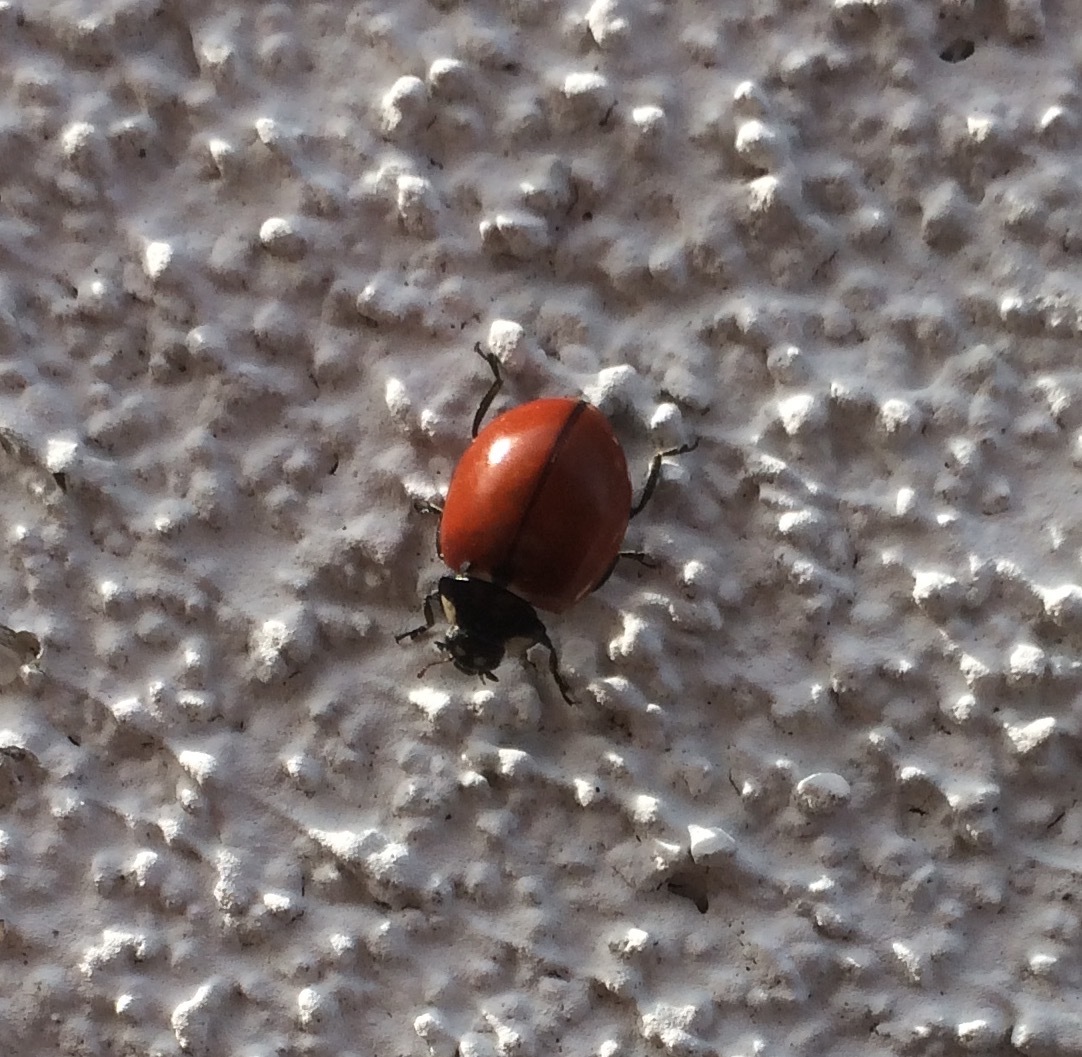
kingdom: Animalia
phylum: Arthropoda
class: Insecta
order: Coleoptera
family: Coccinellidae
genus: Coccinella
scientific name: Coccinella californica
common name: Lady beetle
